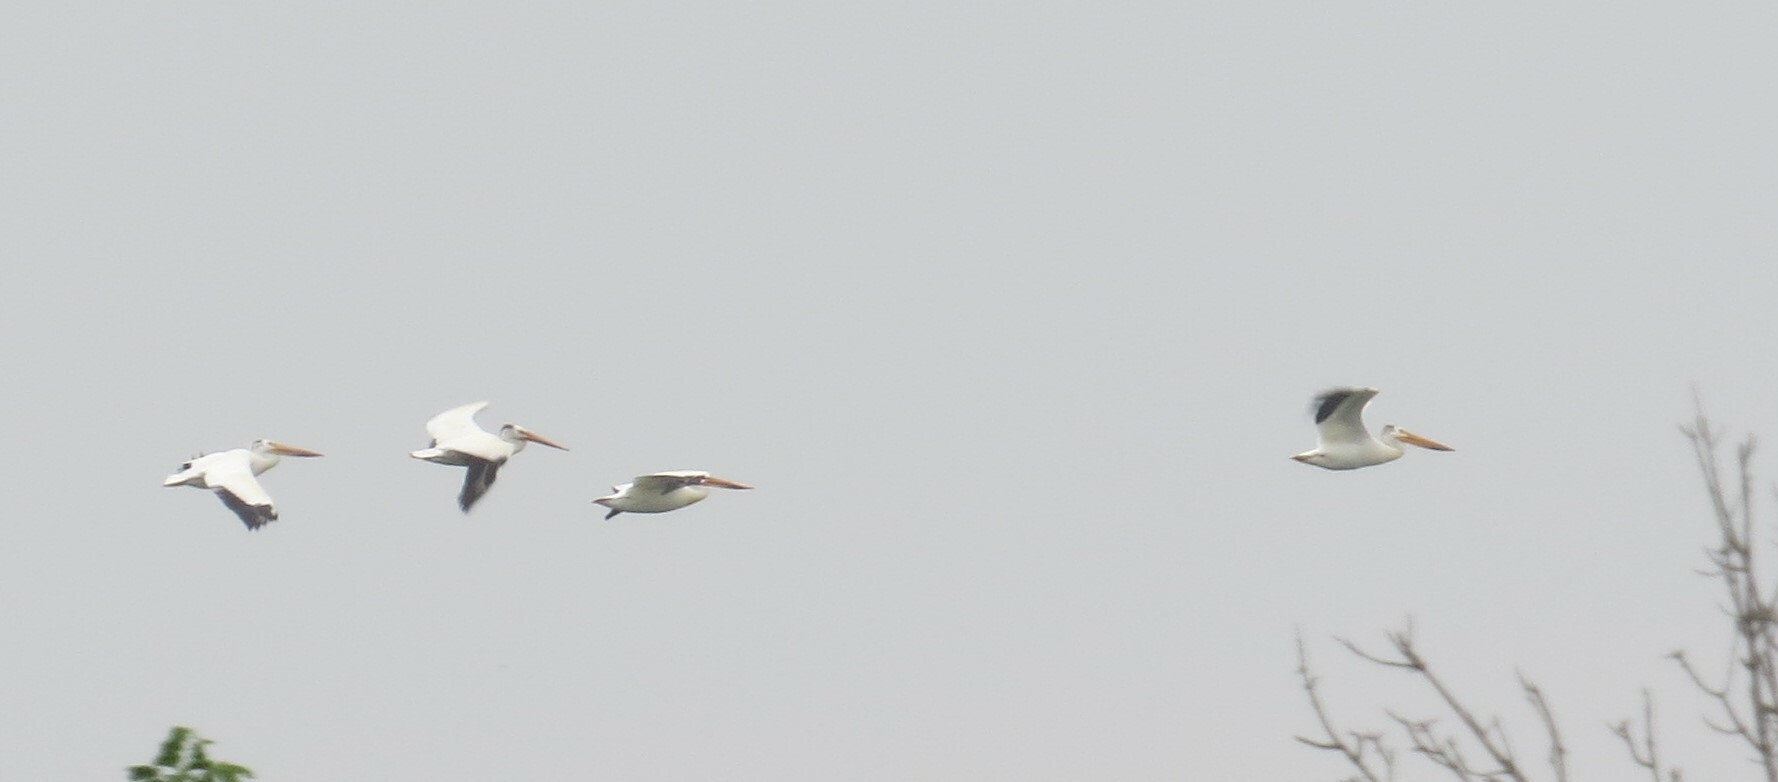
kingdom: Animalia
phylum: Chordata
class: Aves
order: Pelecaniformes
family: Pelecanidae
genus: Pelecanus
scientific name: Pelecanus erythrorhynchos
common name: American white pelican
